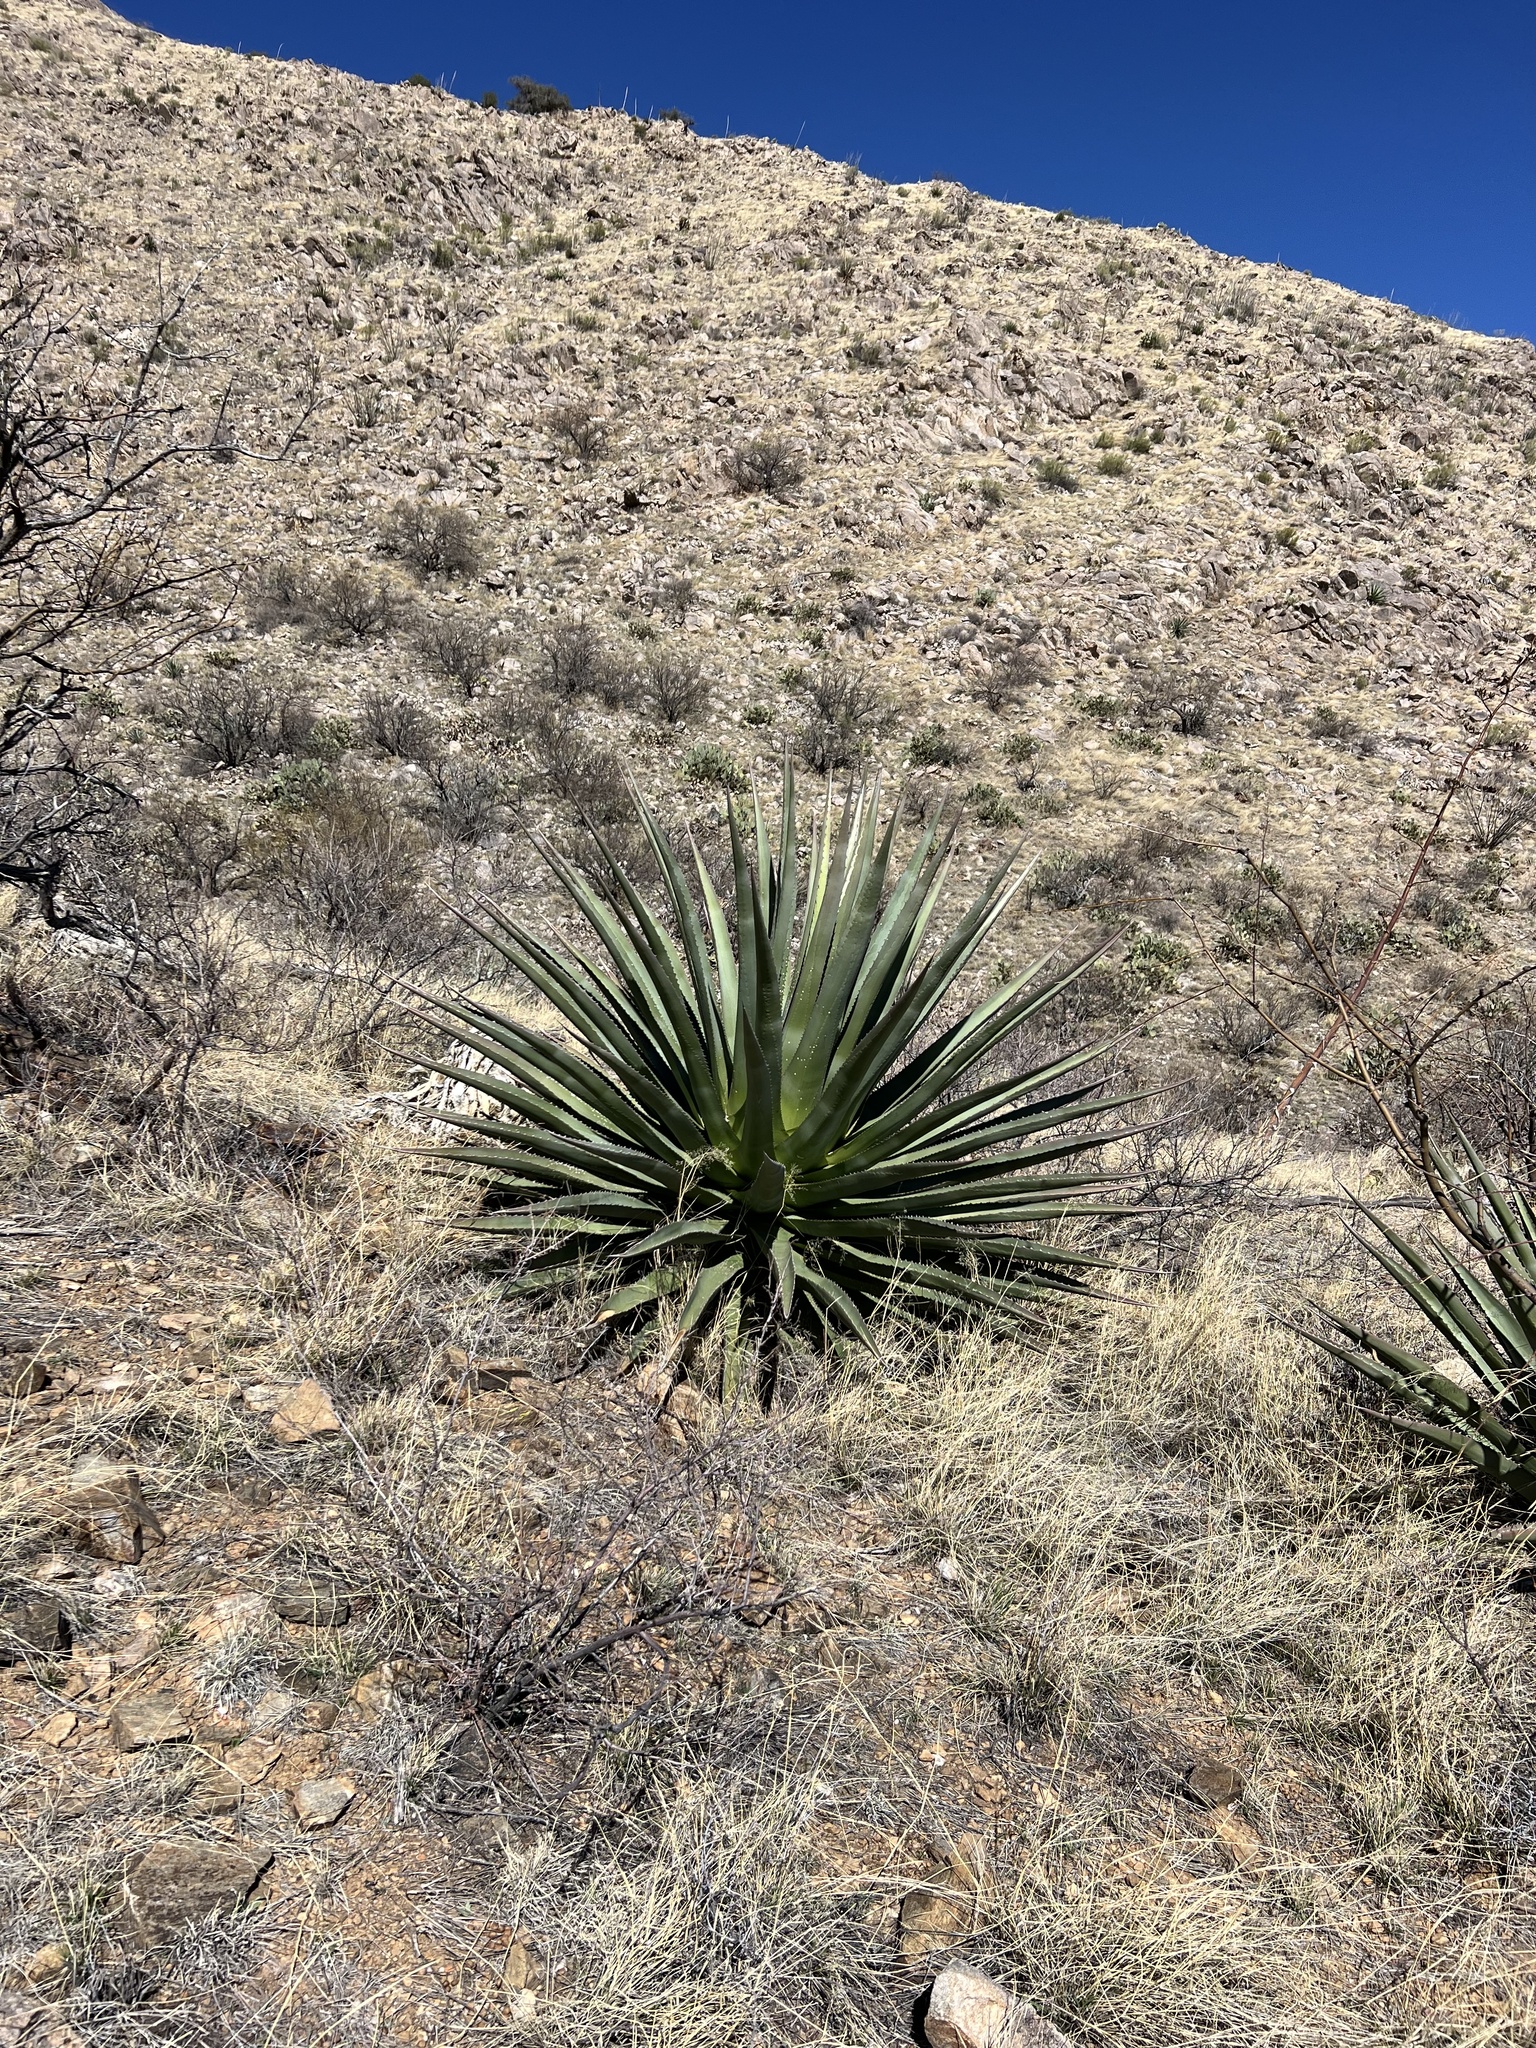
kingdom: Plantae
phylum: Tracheophyta
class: Liliopsida
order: Asparagales
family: Asparagaceae
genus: Agave
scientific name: Agave palmeri
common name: Palmer agave
